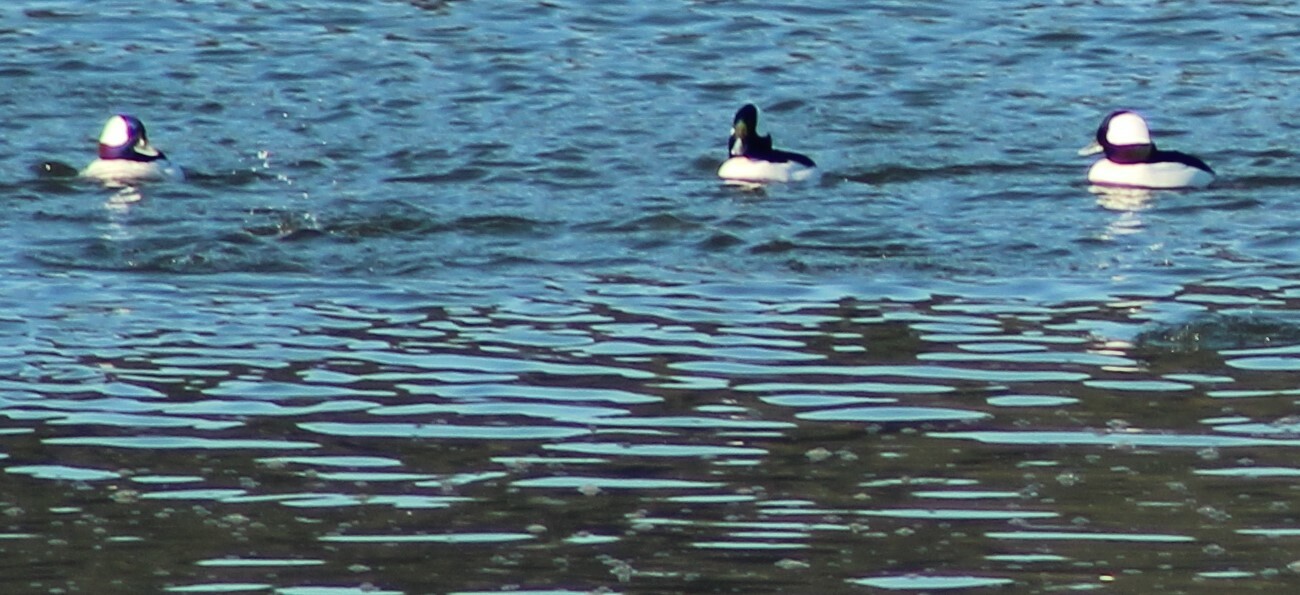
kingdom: Animalia
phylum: Chordata
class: Aves
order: Anseriformes
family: Anatidae
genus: Bucephala
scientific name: Bucephala albeola
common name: Bufflehead
